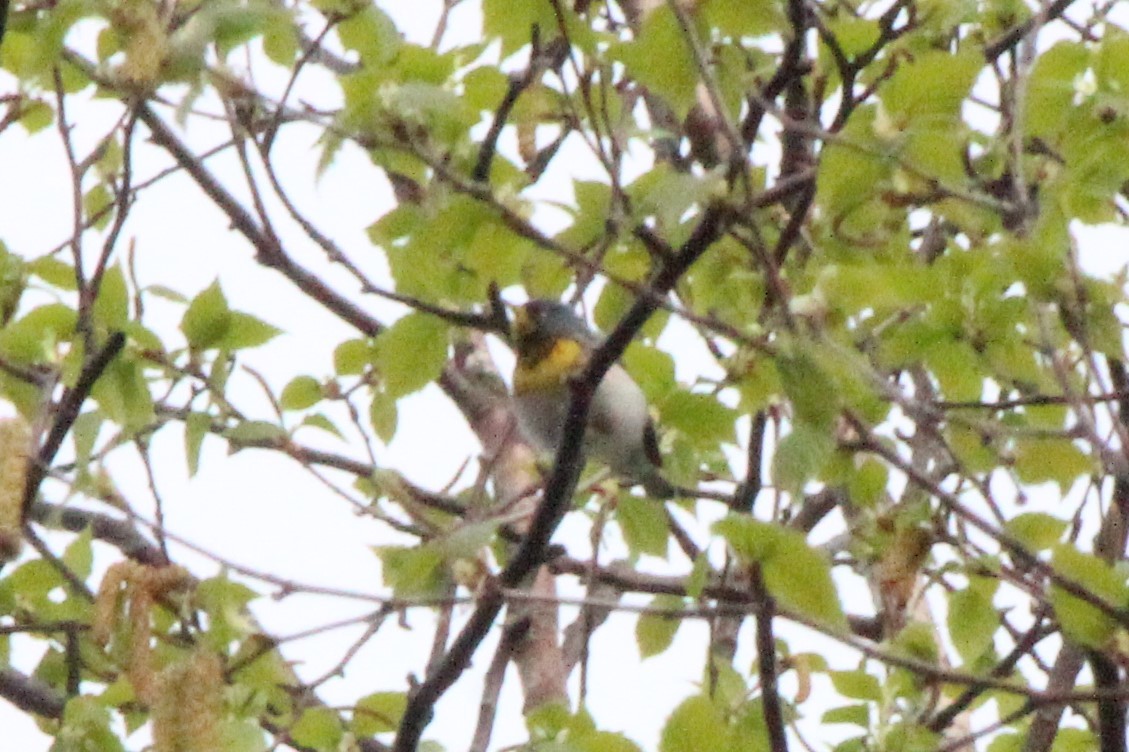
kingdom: Animalia
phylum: Chordata
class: Aves
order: Passeriformes
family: Parulidae
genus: Setophaga
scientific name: Setophaga americana
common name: Northern parula
